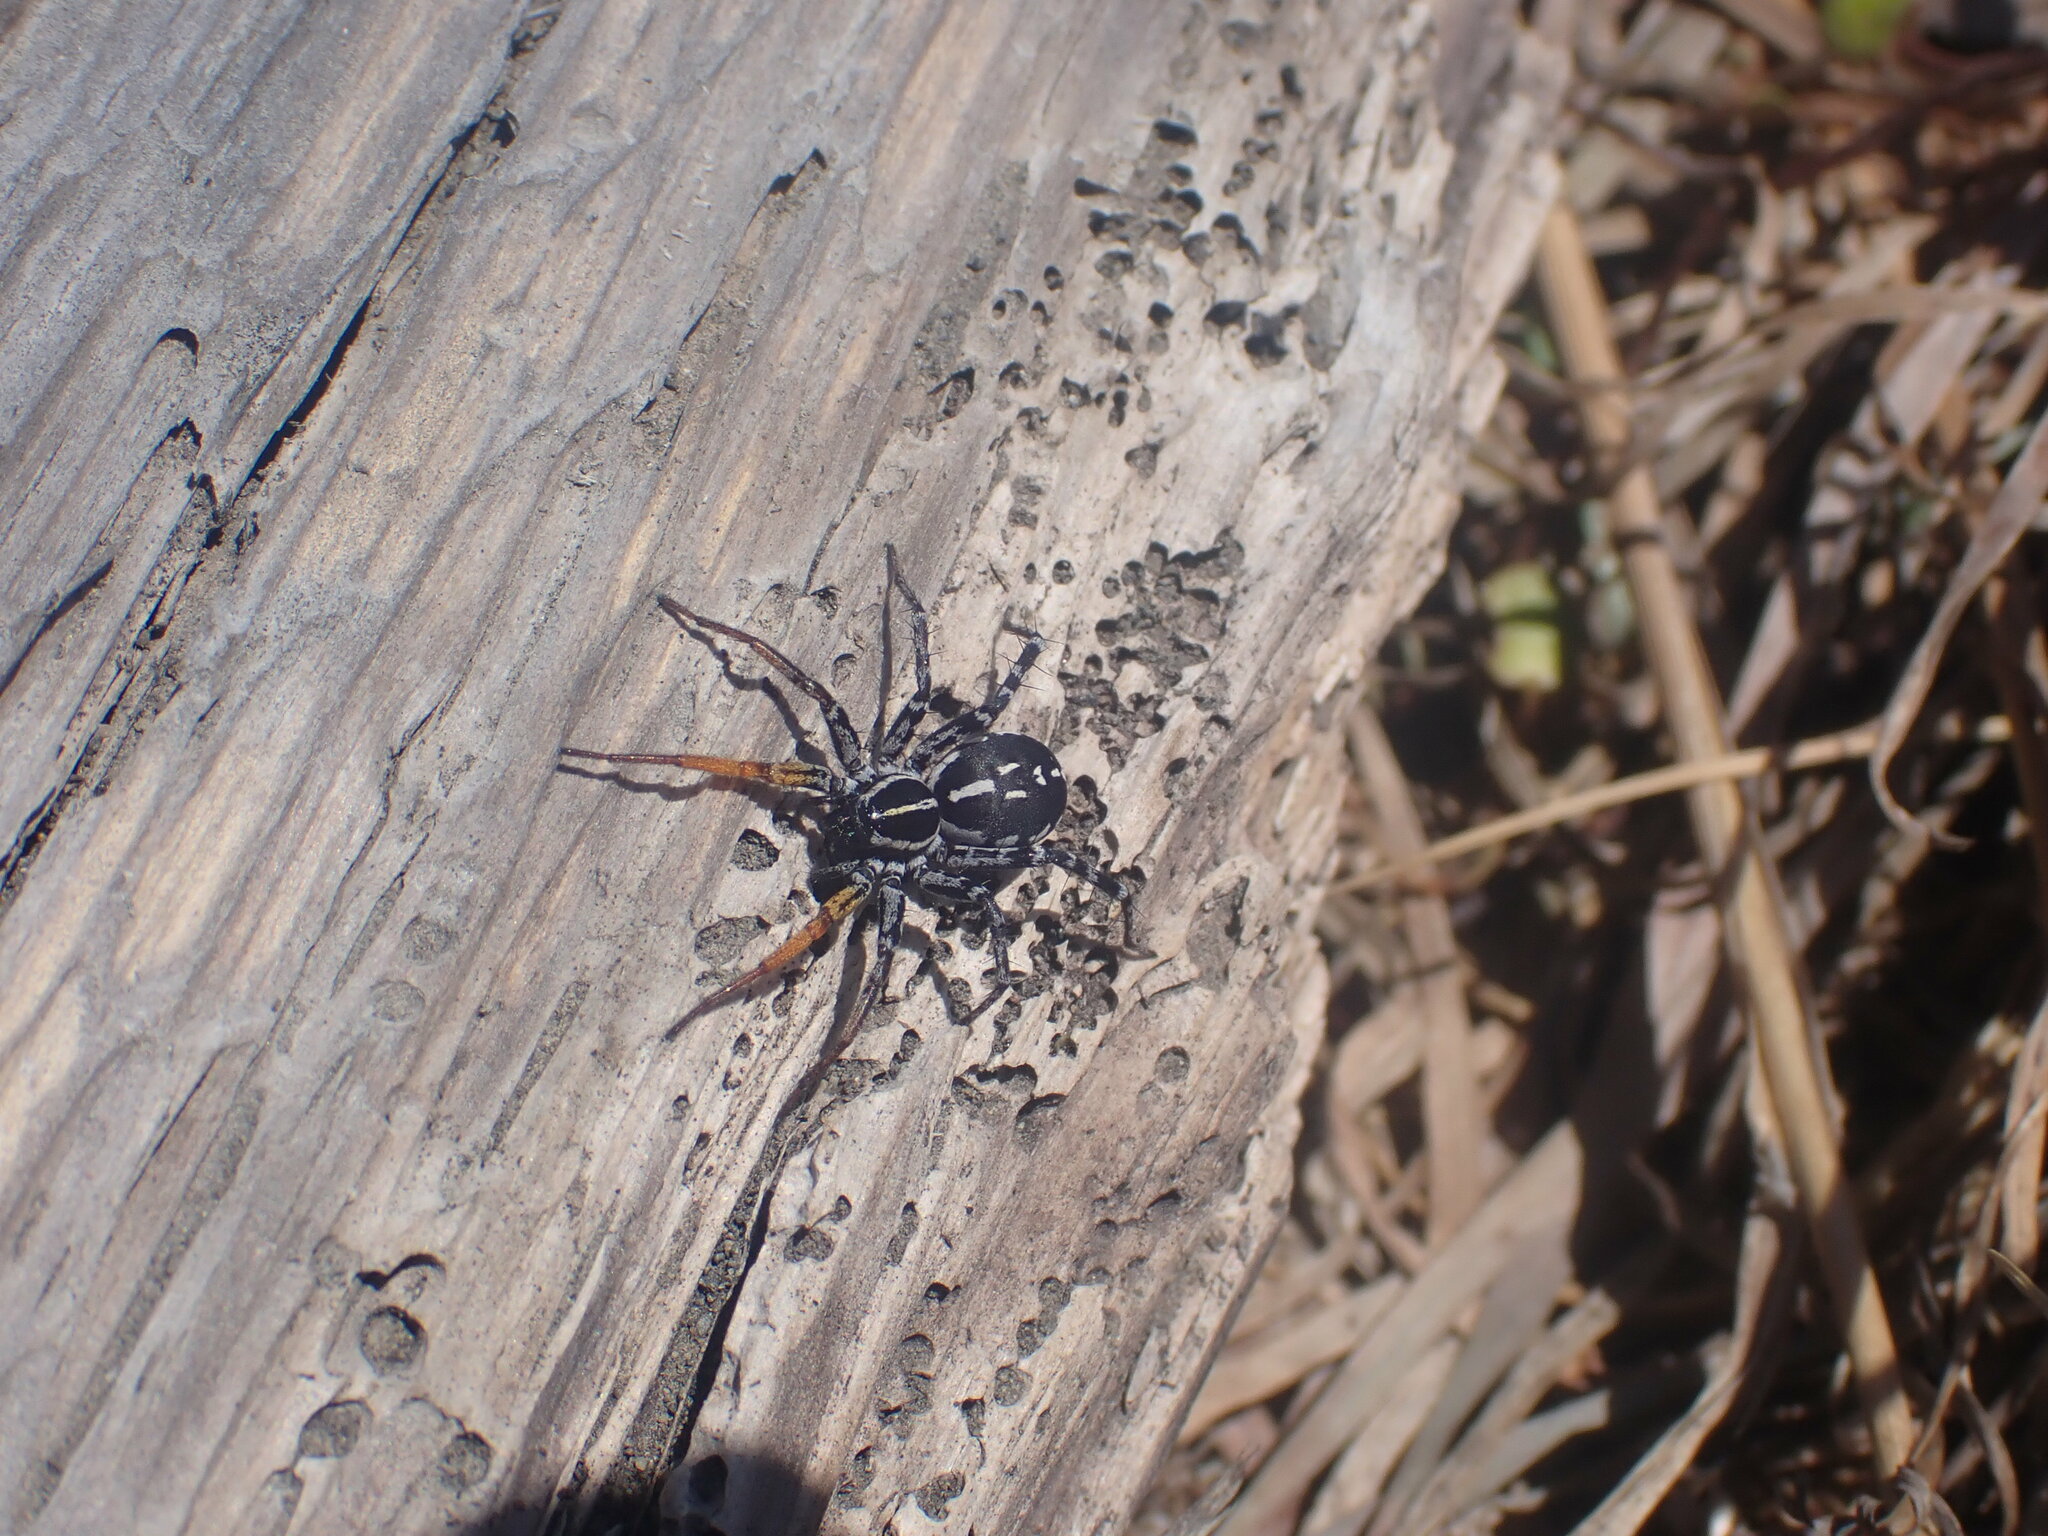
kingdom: Animalia
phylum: Arthropoda
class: Arachnida
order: Araneae
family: Corinnidae
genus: Nyssus
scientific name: Nyssus coloripes
